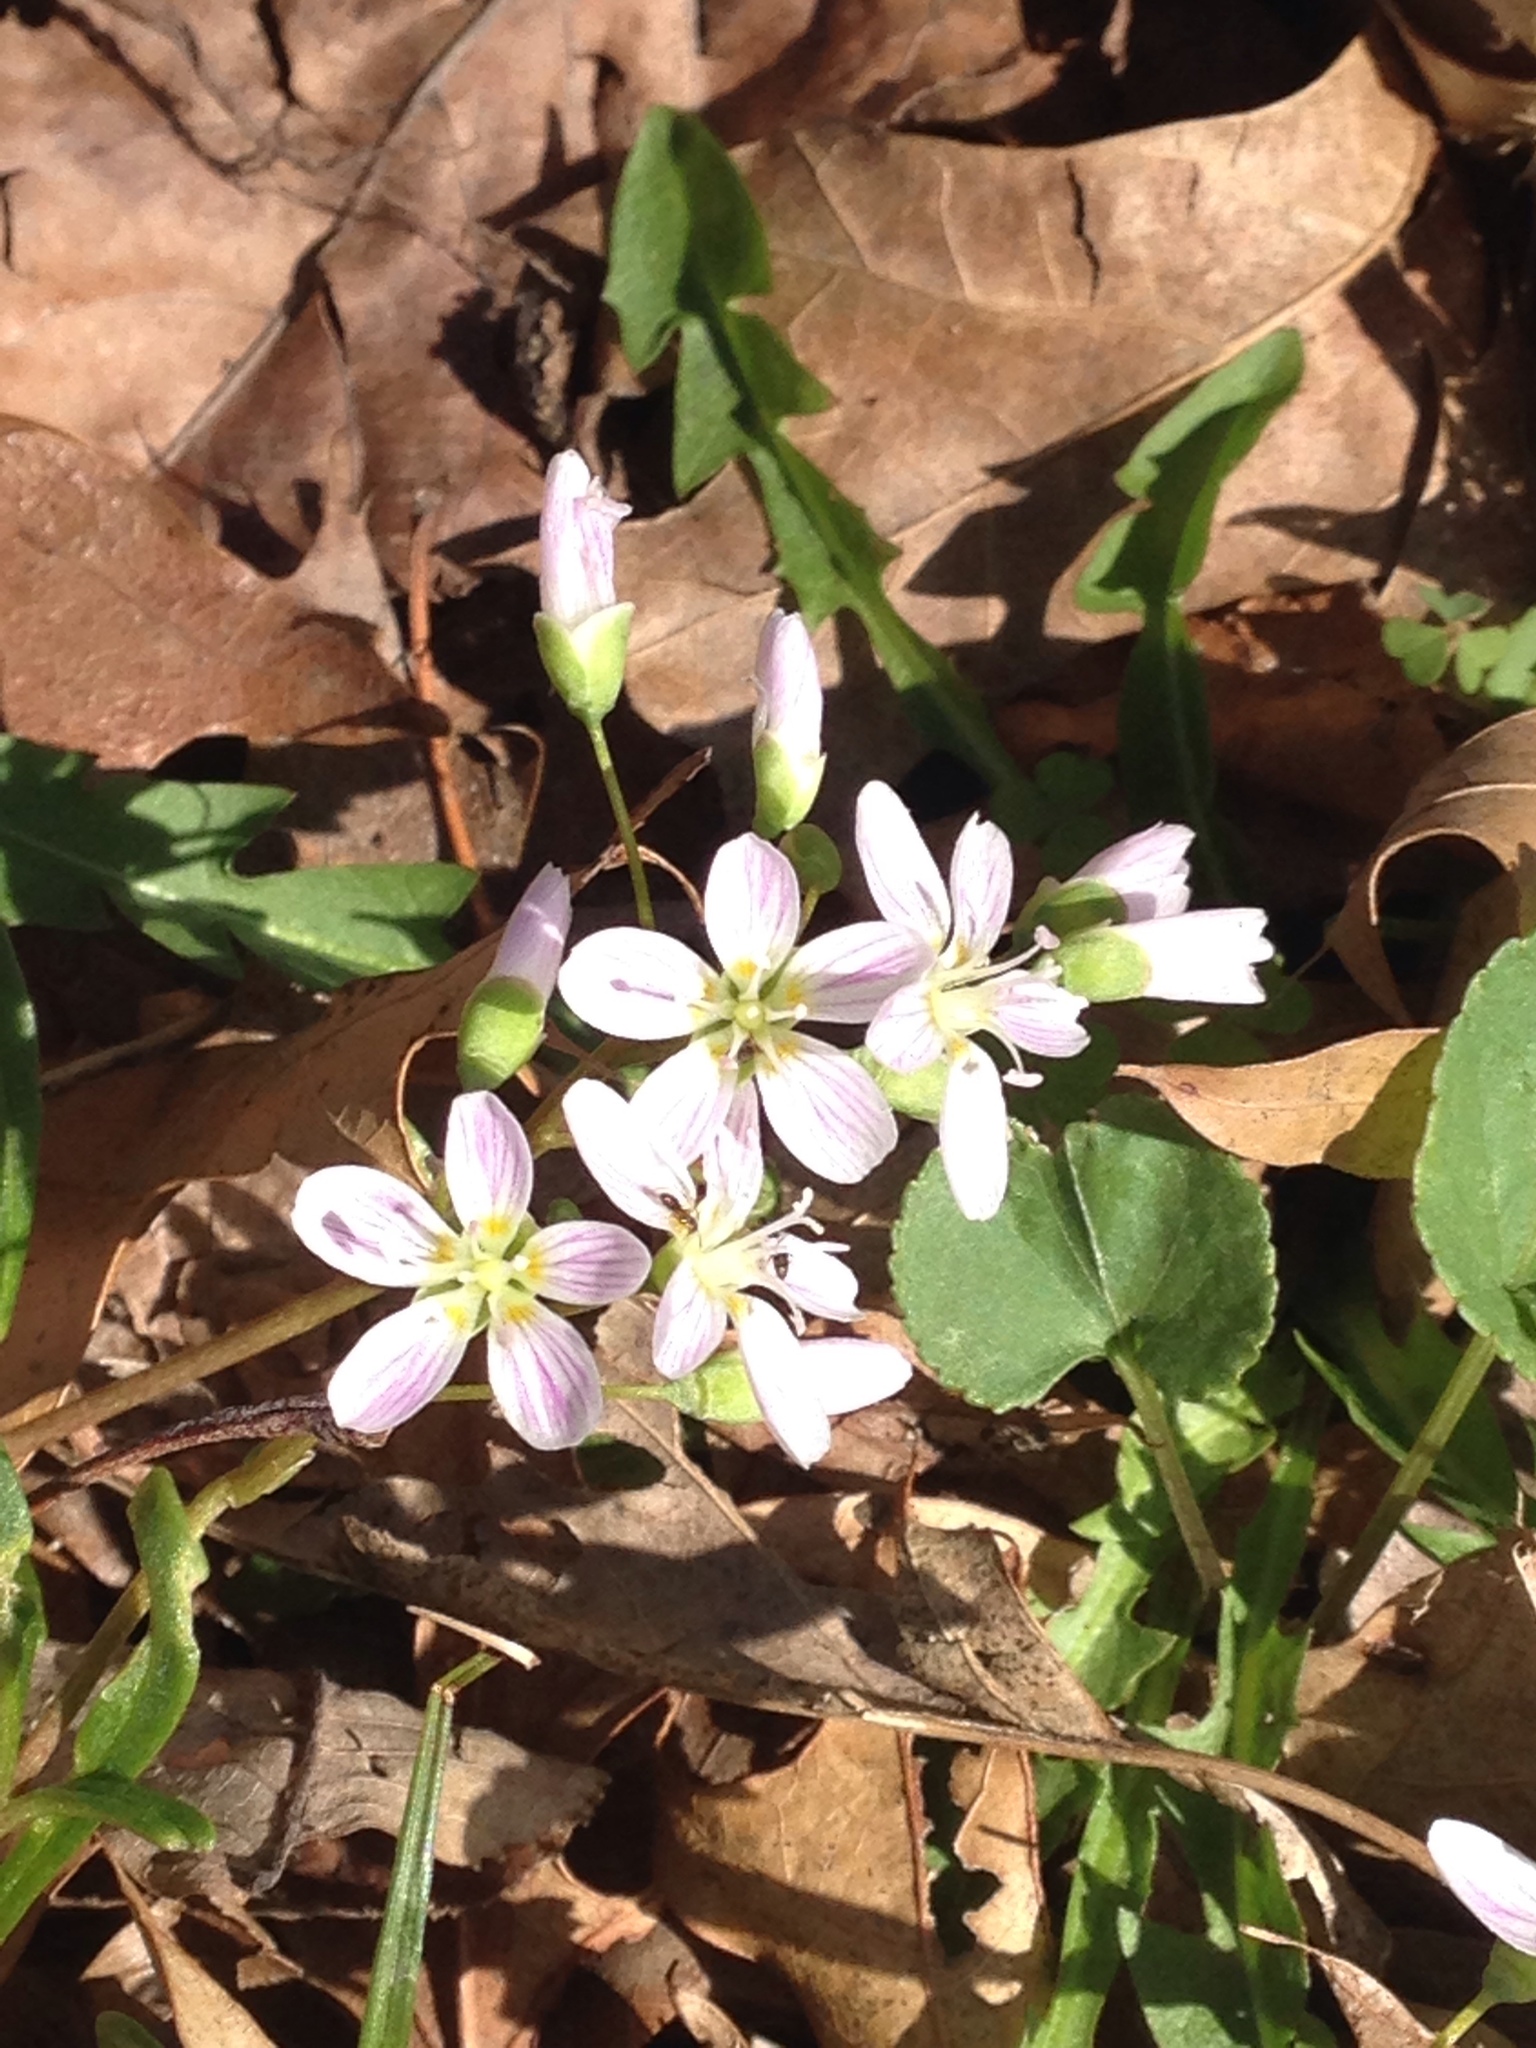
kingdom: Plantae
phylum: Tracheophyta
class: Magnoliopsida
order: Caryophyllales
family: Montiaceae
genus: Claytonia
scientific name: Claytonia virginica
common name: Virginia springbeauty
